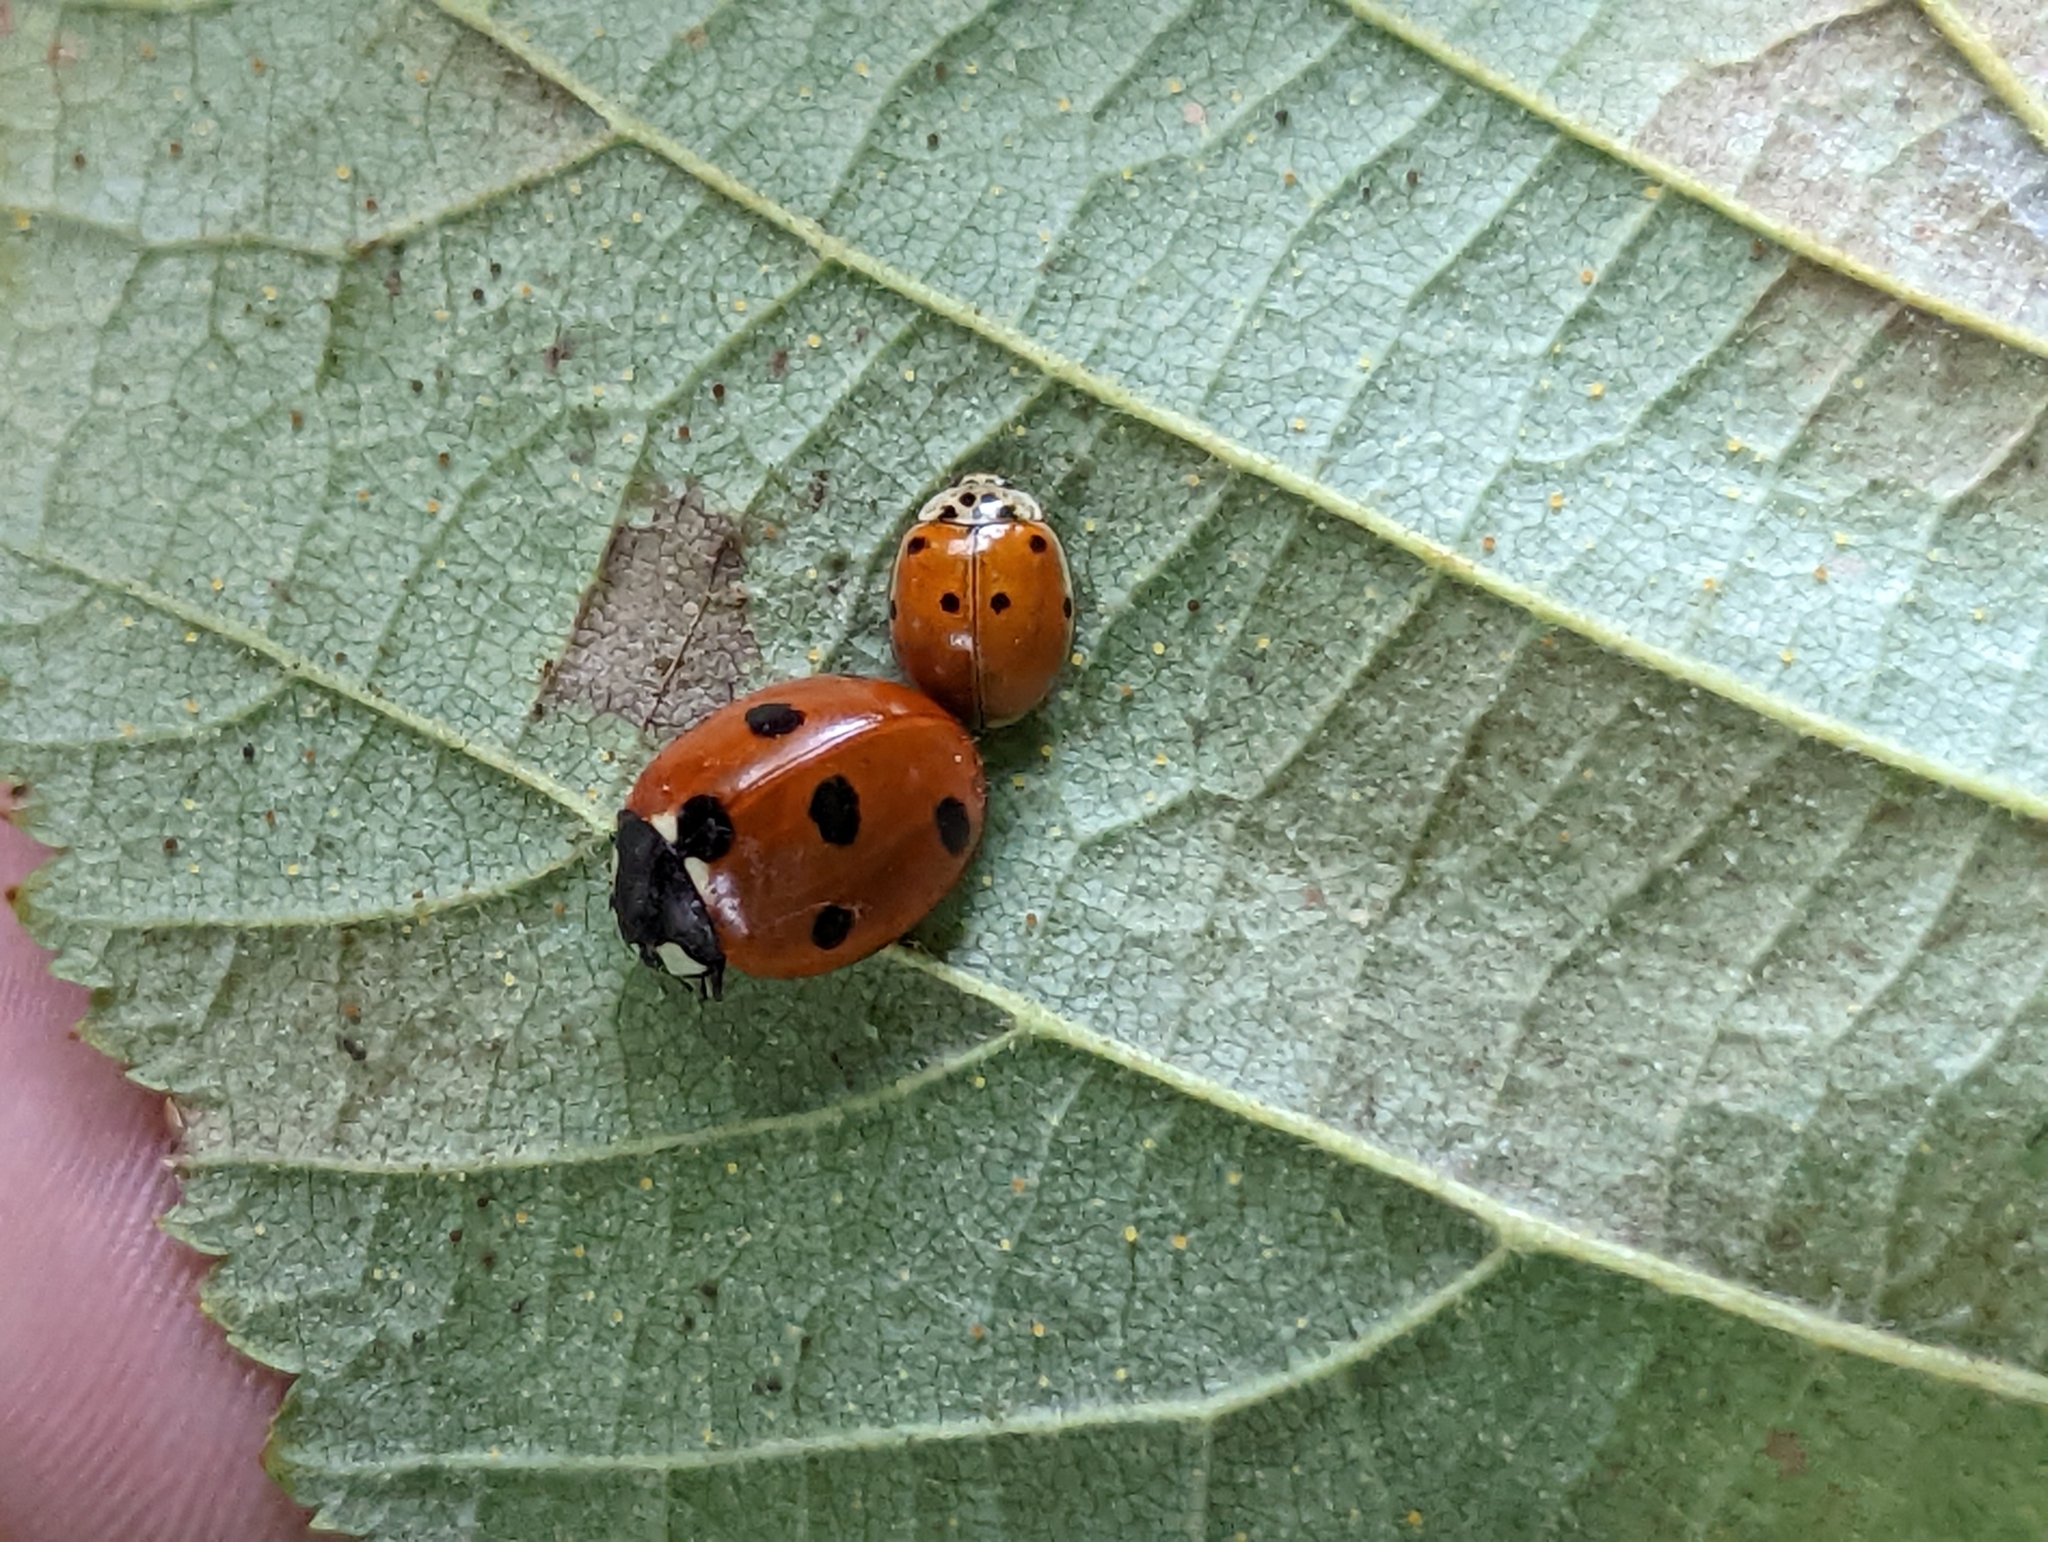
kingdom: Animalia
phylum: Arthropoda
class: Insecta
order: Coleoptera
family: Coccinellidae
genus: Coccinella
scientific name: Coccinella septempunctata
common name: Sevenspotted lady beetle
